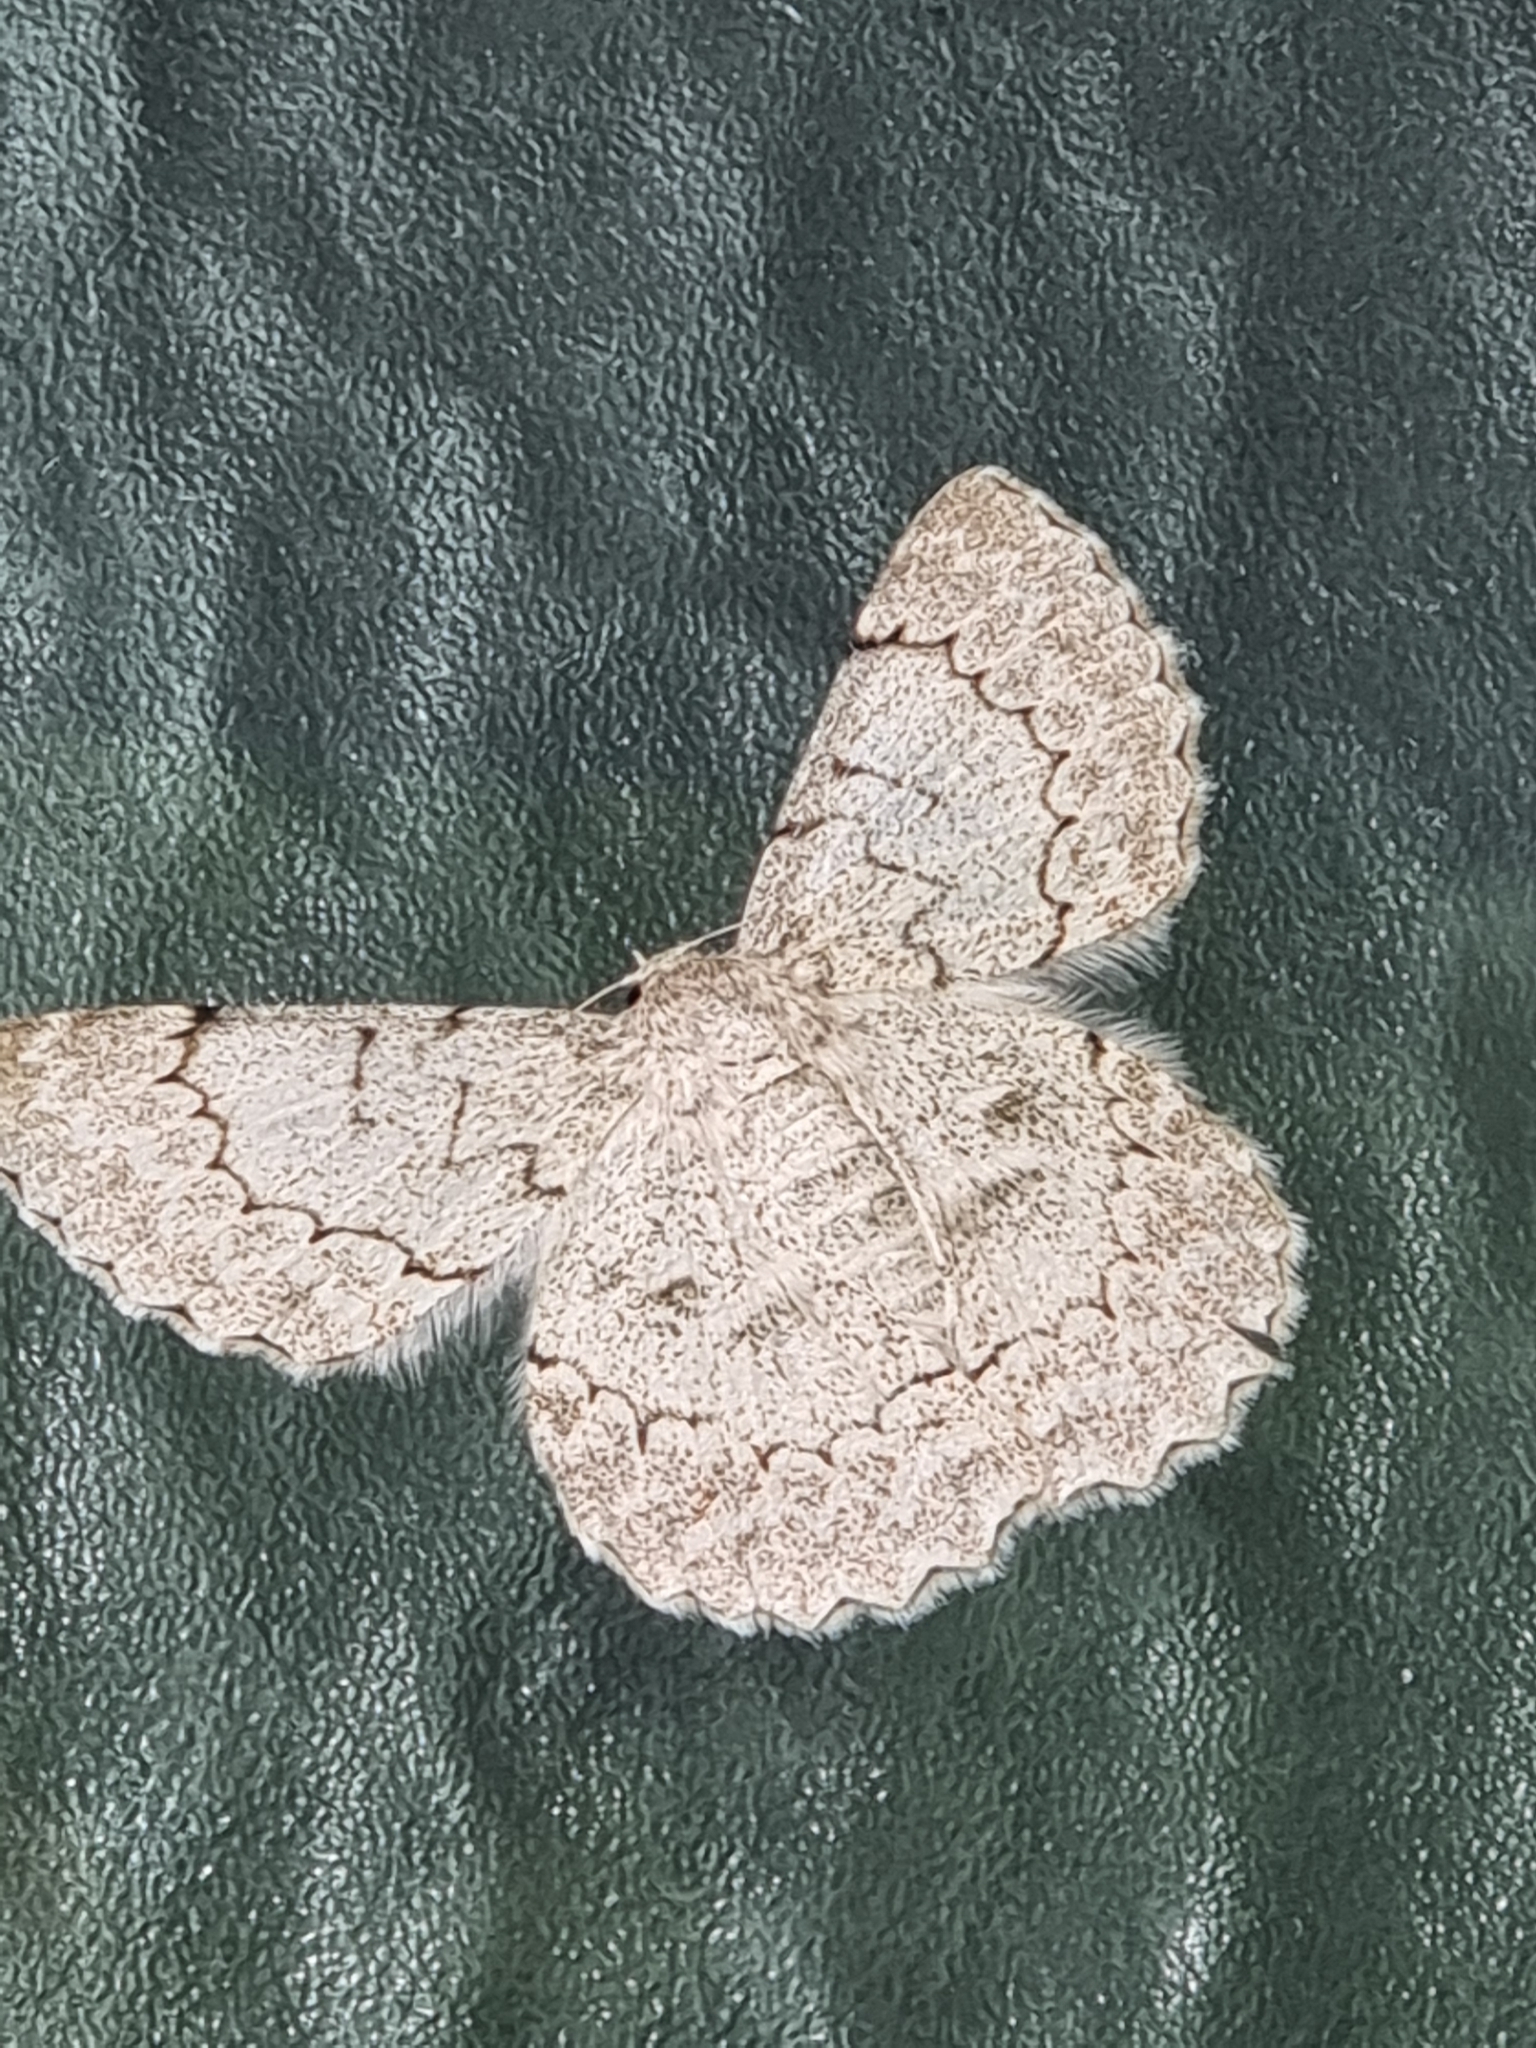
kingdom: Animalia
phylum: Arthropoda
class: Insecta
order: Lepidoptera
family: Geometridae
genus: Pingasa
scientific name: Pingasa chlora
